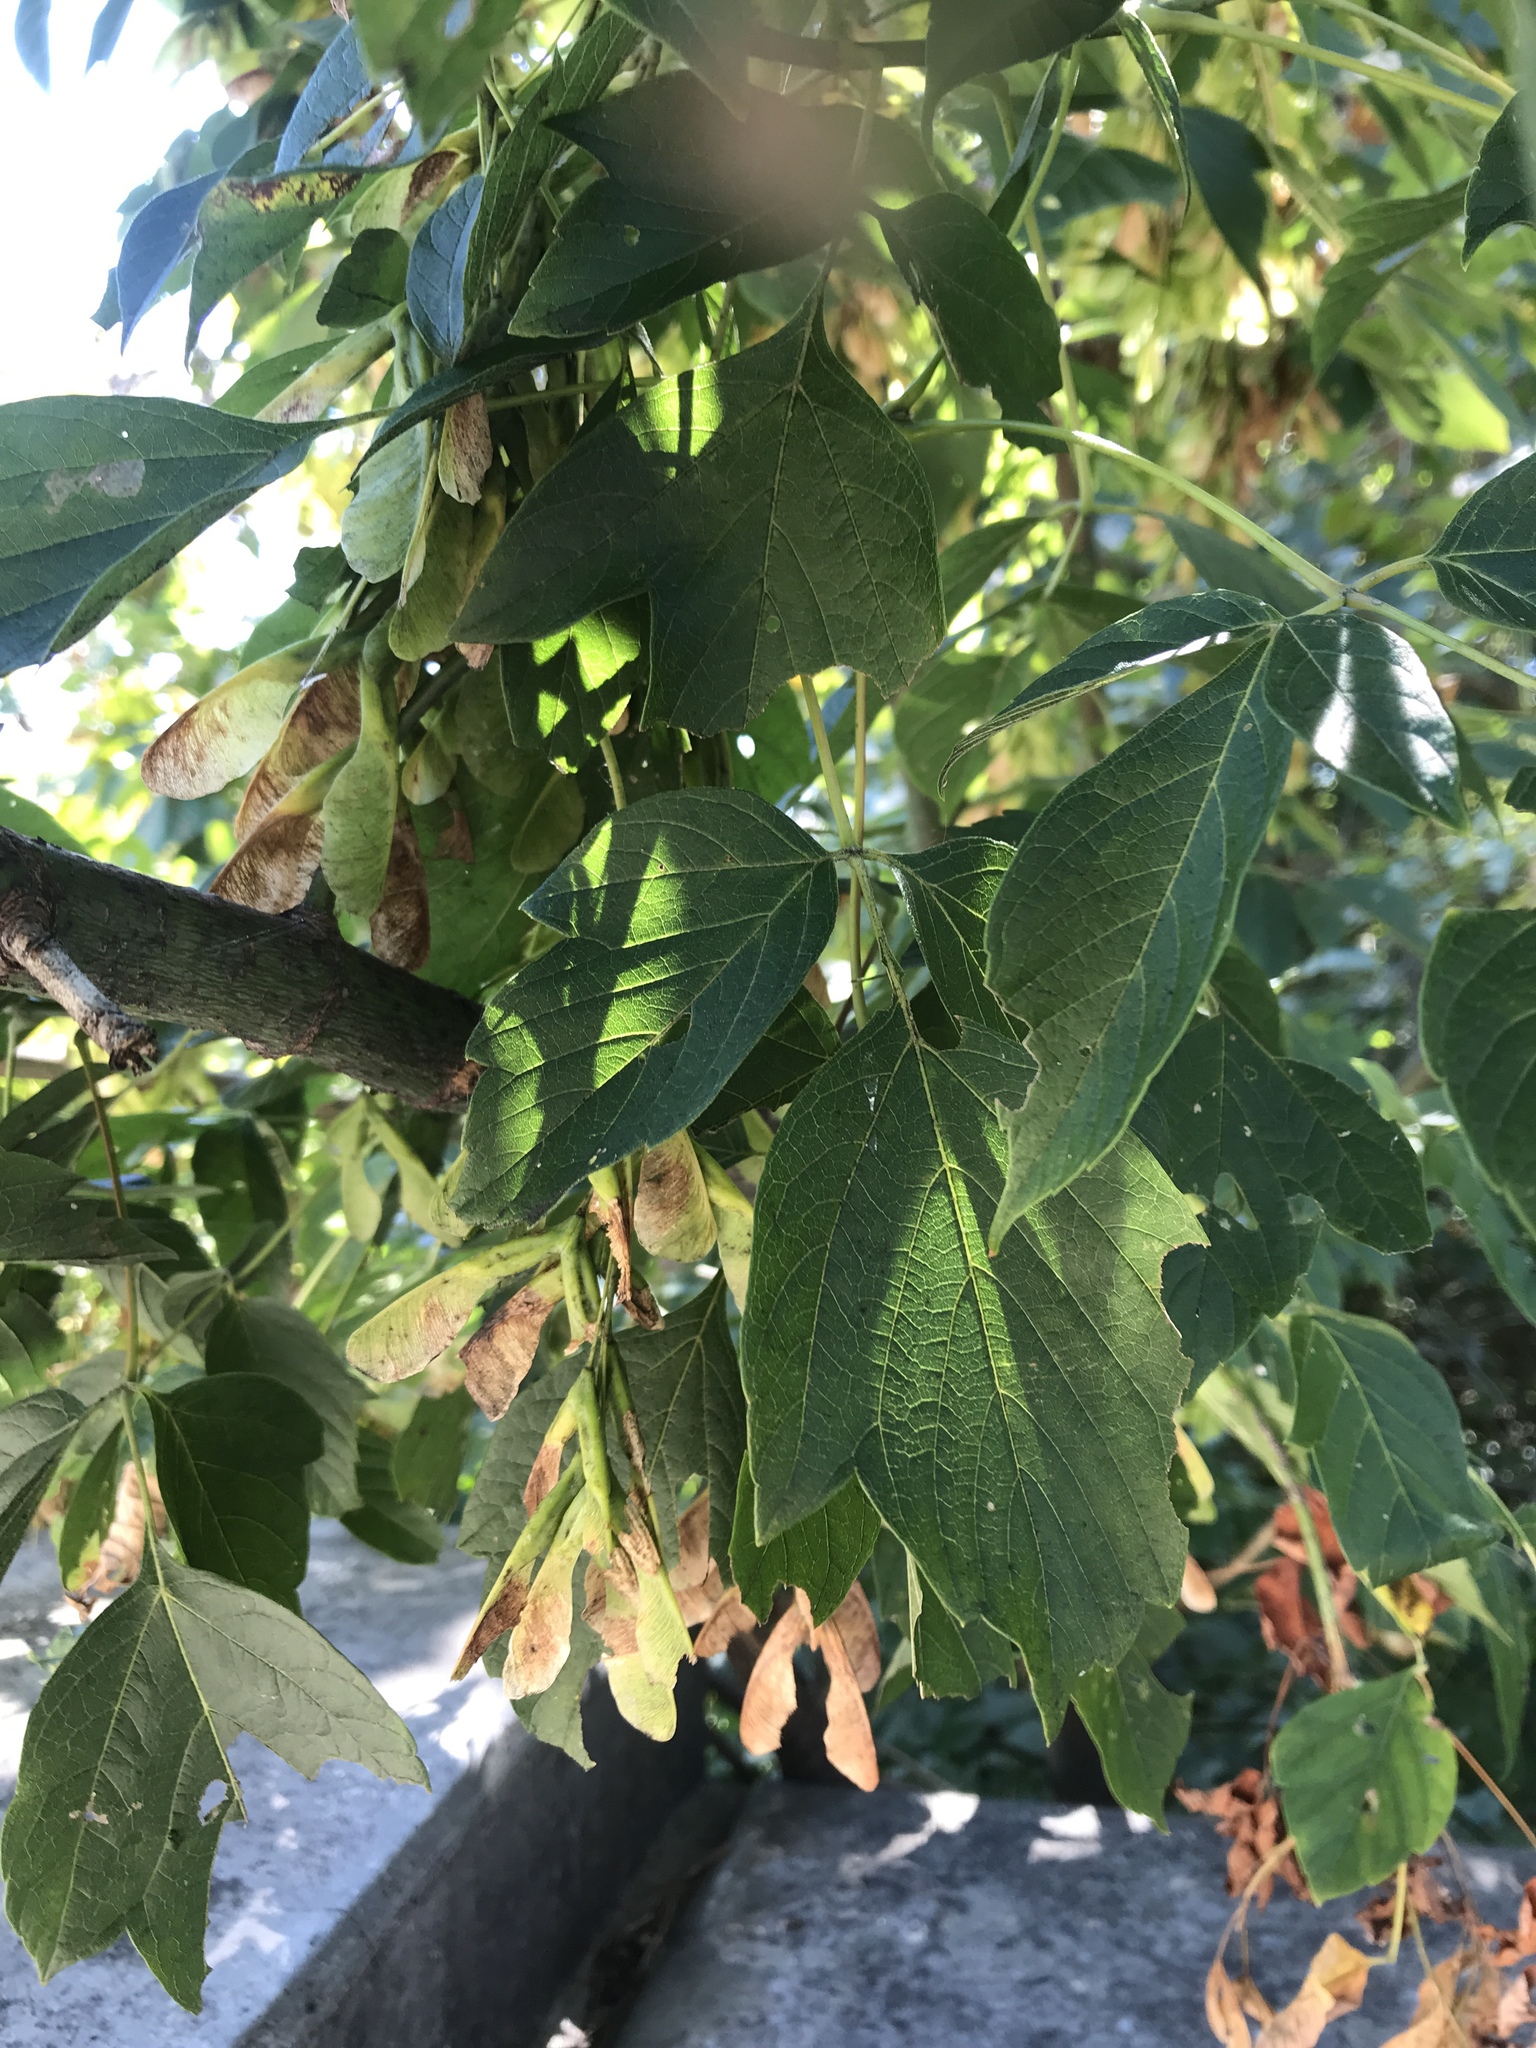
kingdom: Plantae
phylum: Tracheophyta
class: Magnoliopsida
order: Sapindales
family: Sapindaceae
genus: Acer
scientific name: Acer negundo
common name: Ashleaf maple
